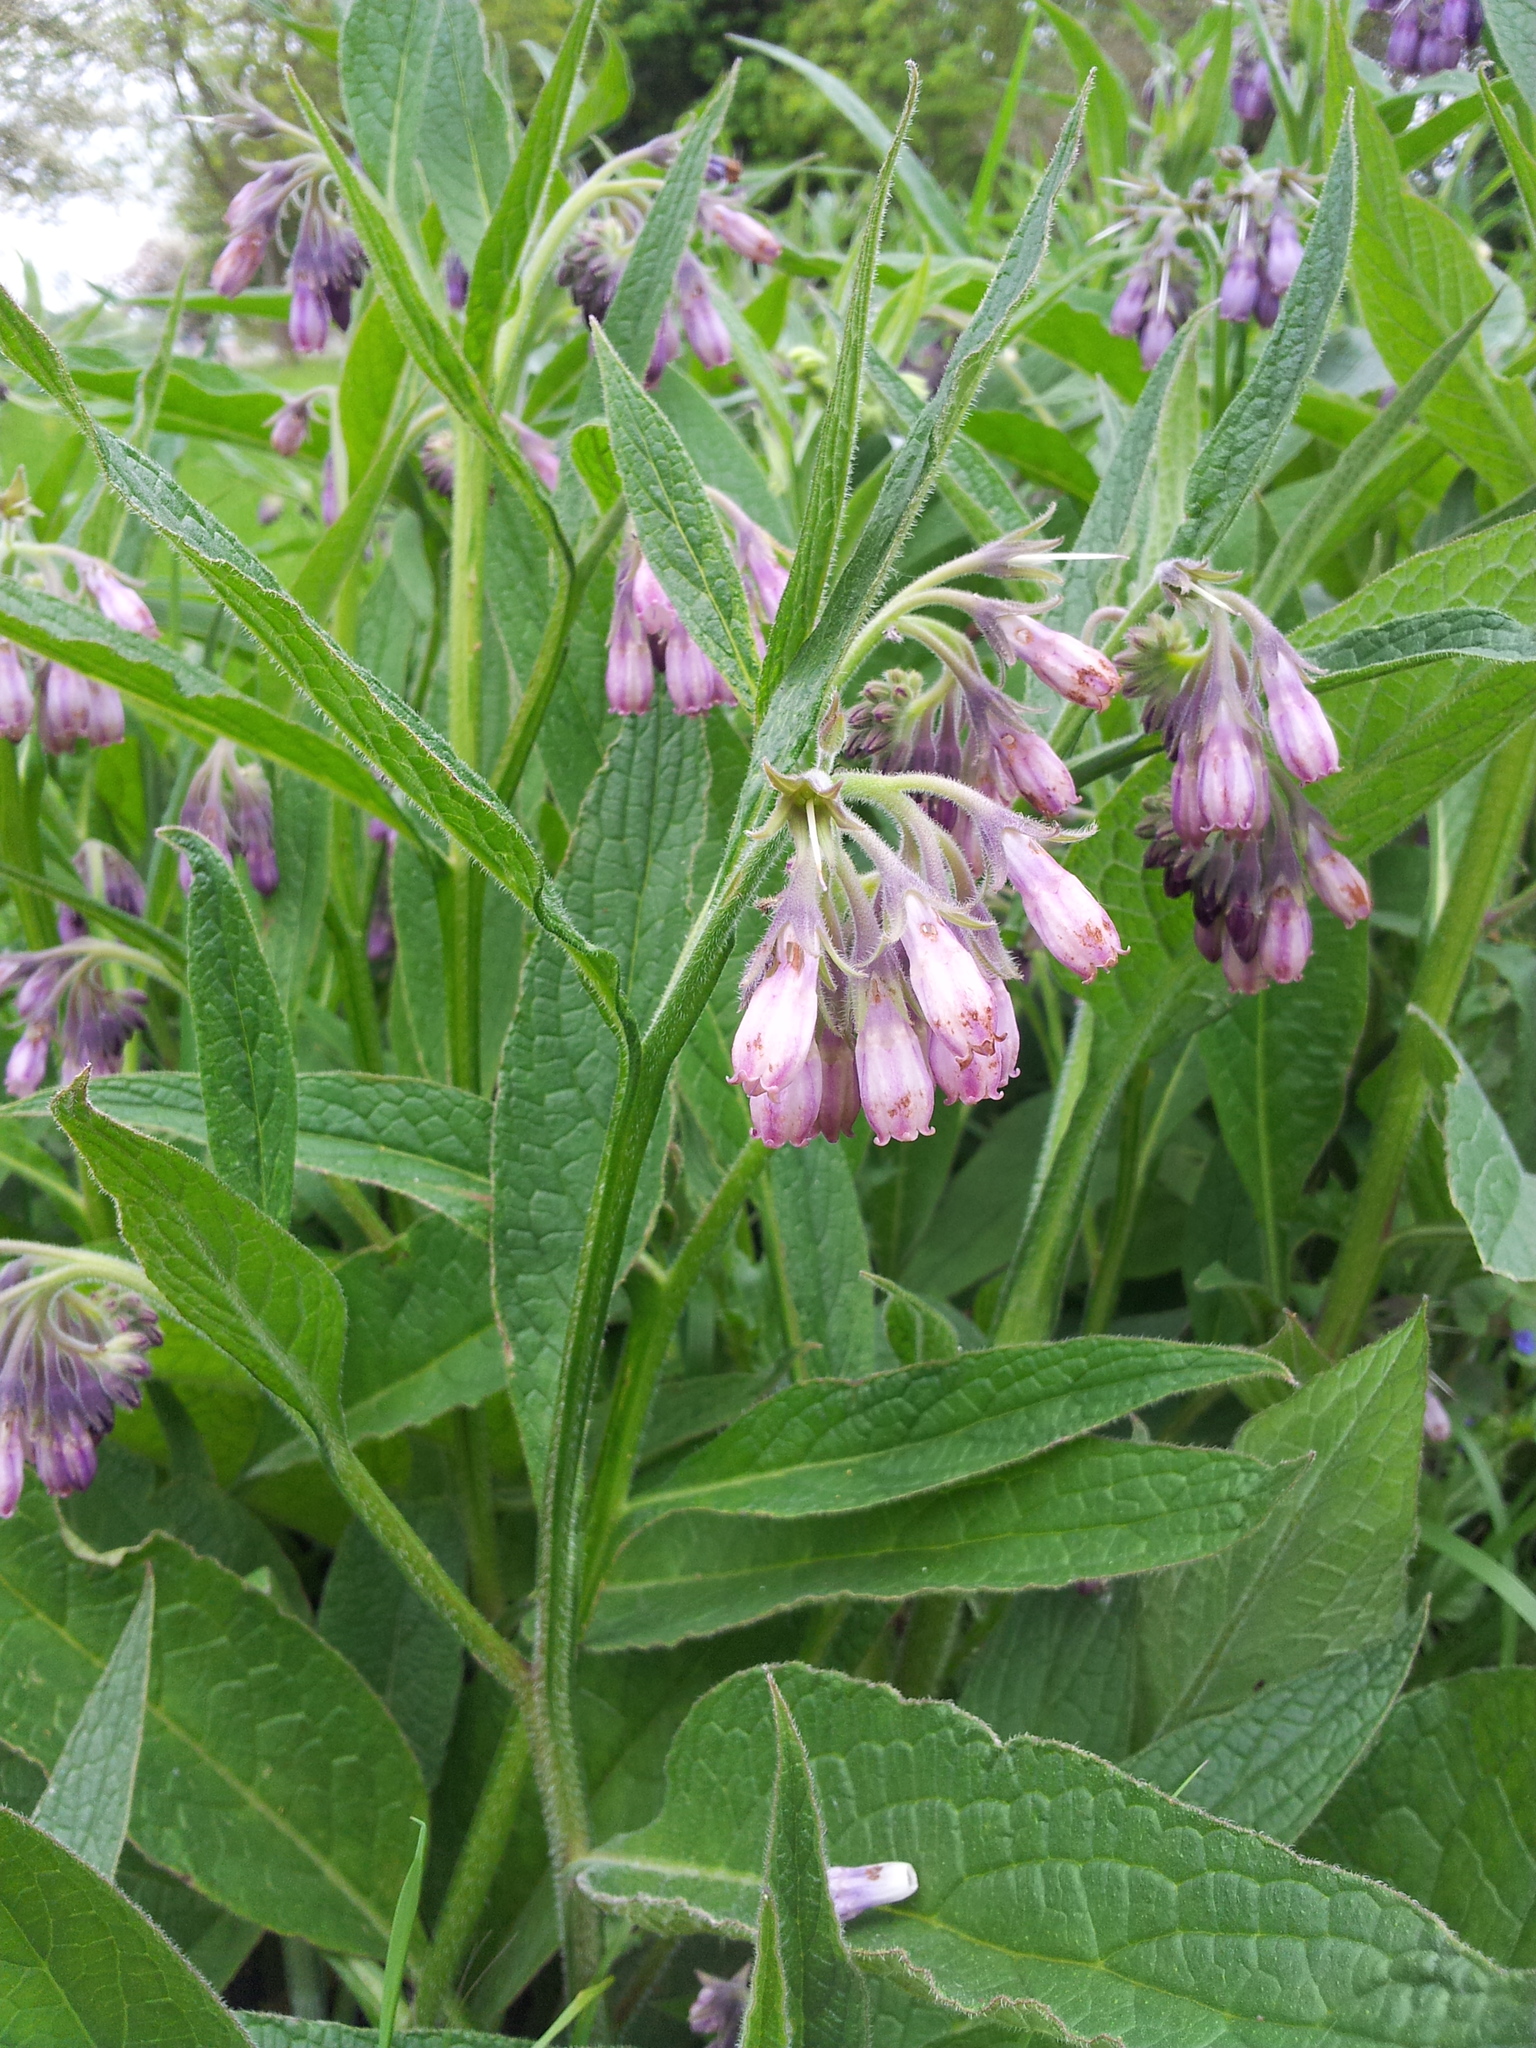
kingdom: Plantae
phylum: Tracheophyta
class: Magnoliopsida
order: Boraginales
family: Boraginaceae
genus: Symphytum
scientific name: Symphytum officinale
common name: Common comfrey
